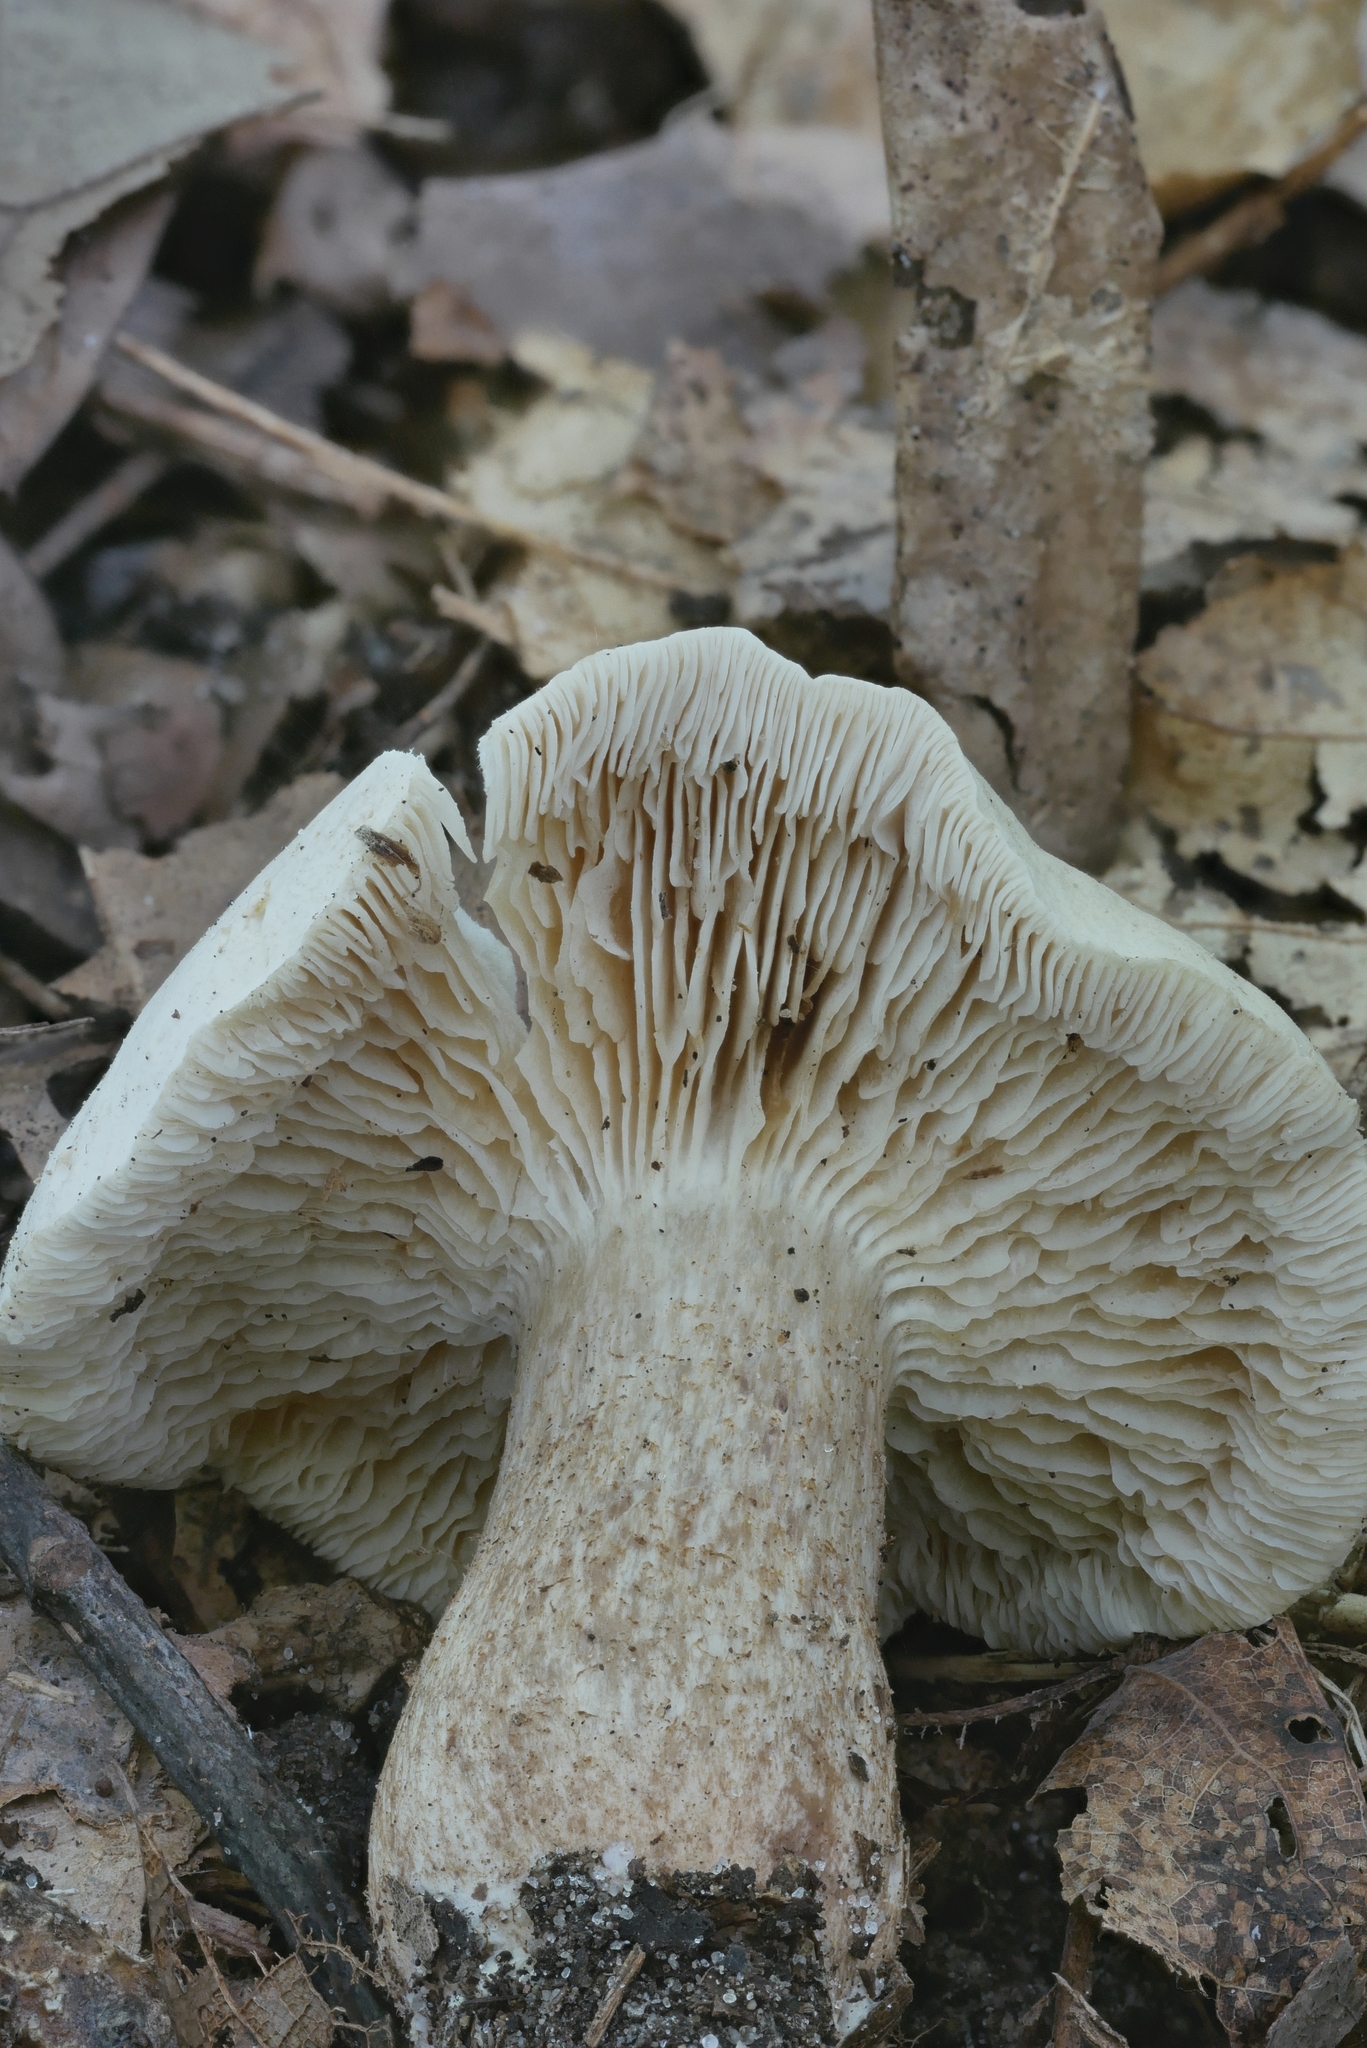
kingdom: Fungi
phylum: Basidiomycota
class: Agaricomycetes
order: Agaricales
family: Tricholomataceae
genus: Tricholoma
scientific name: Tricholoma odorum
